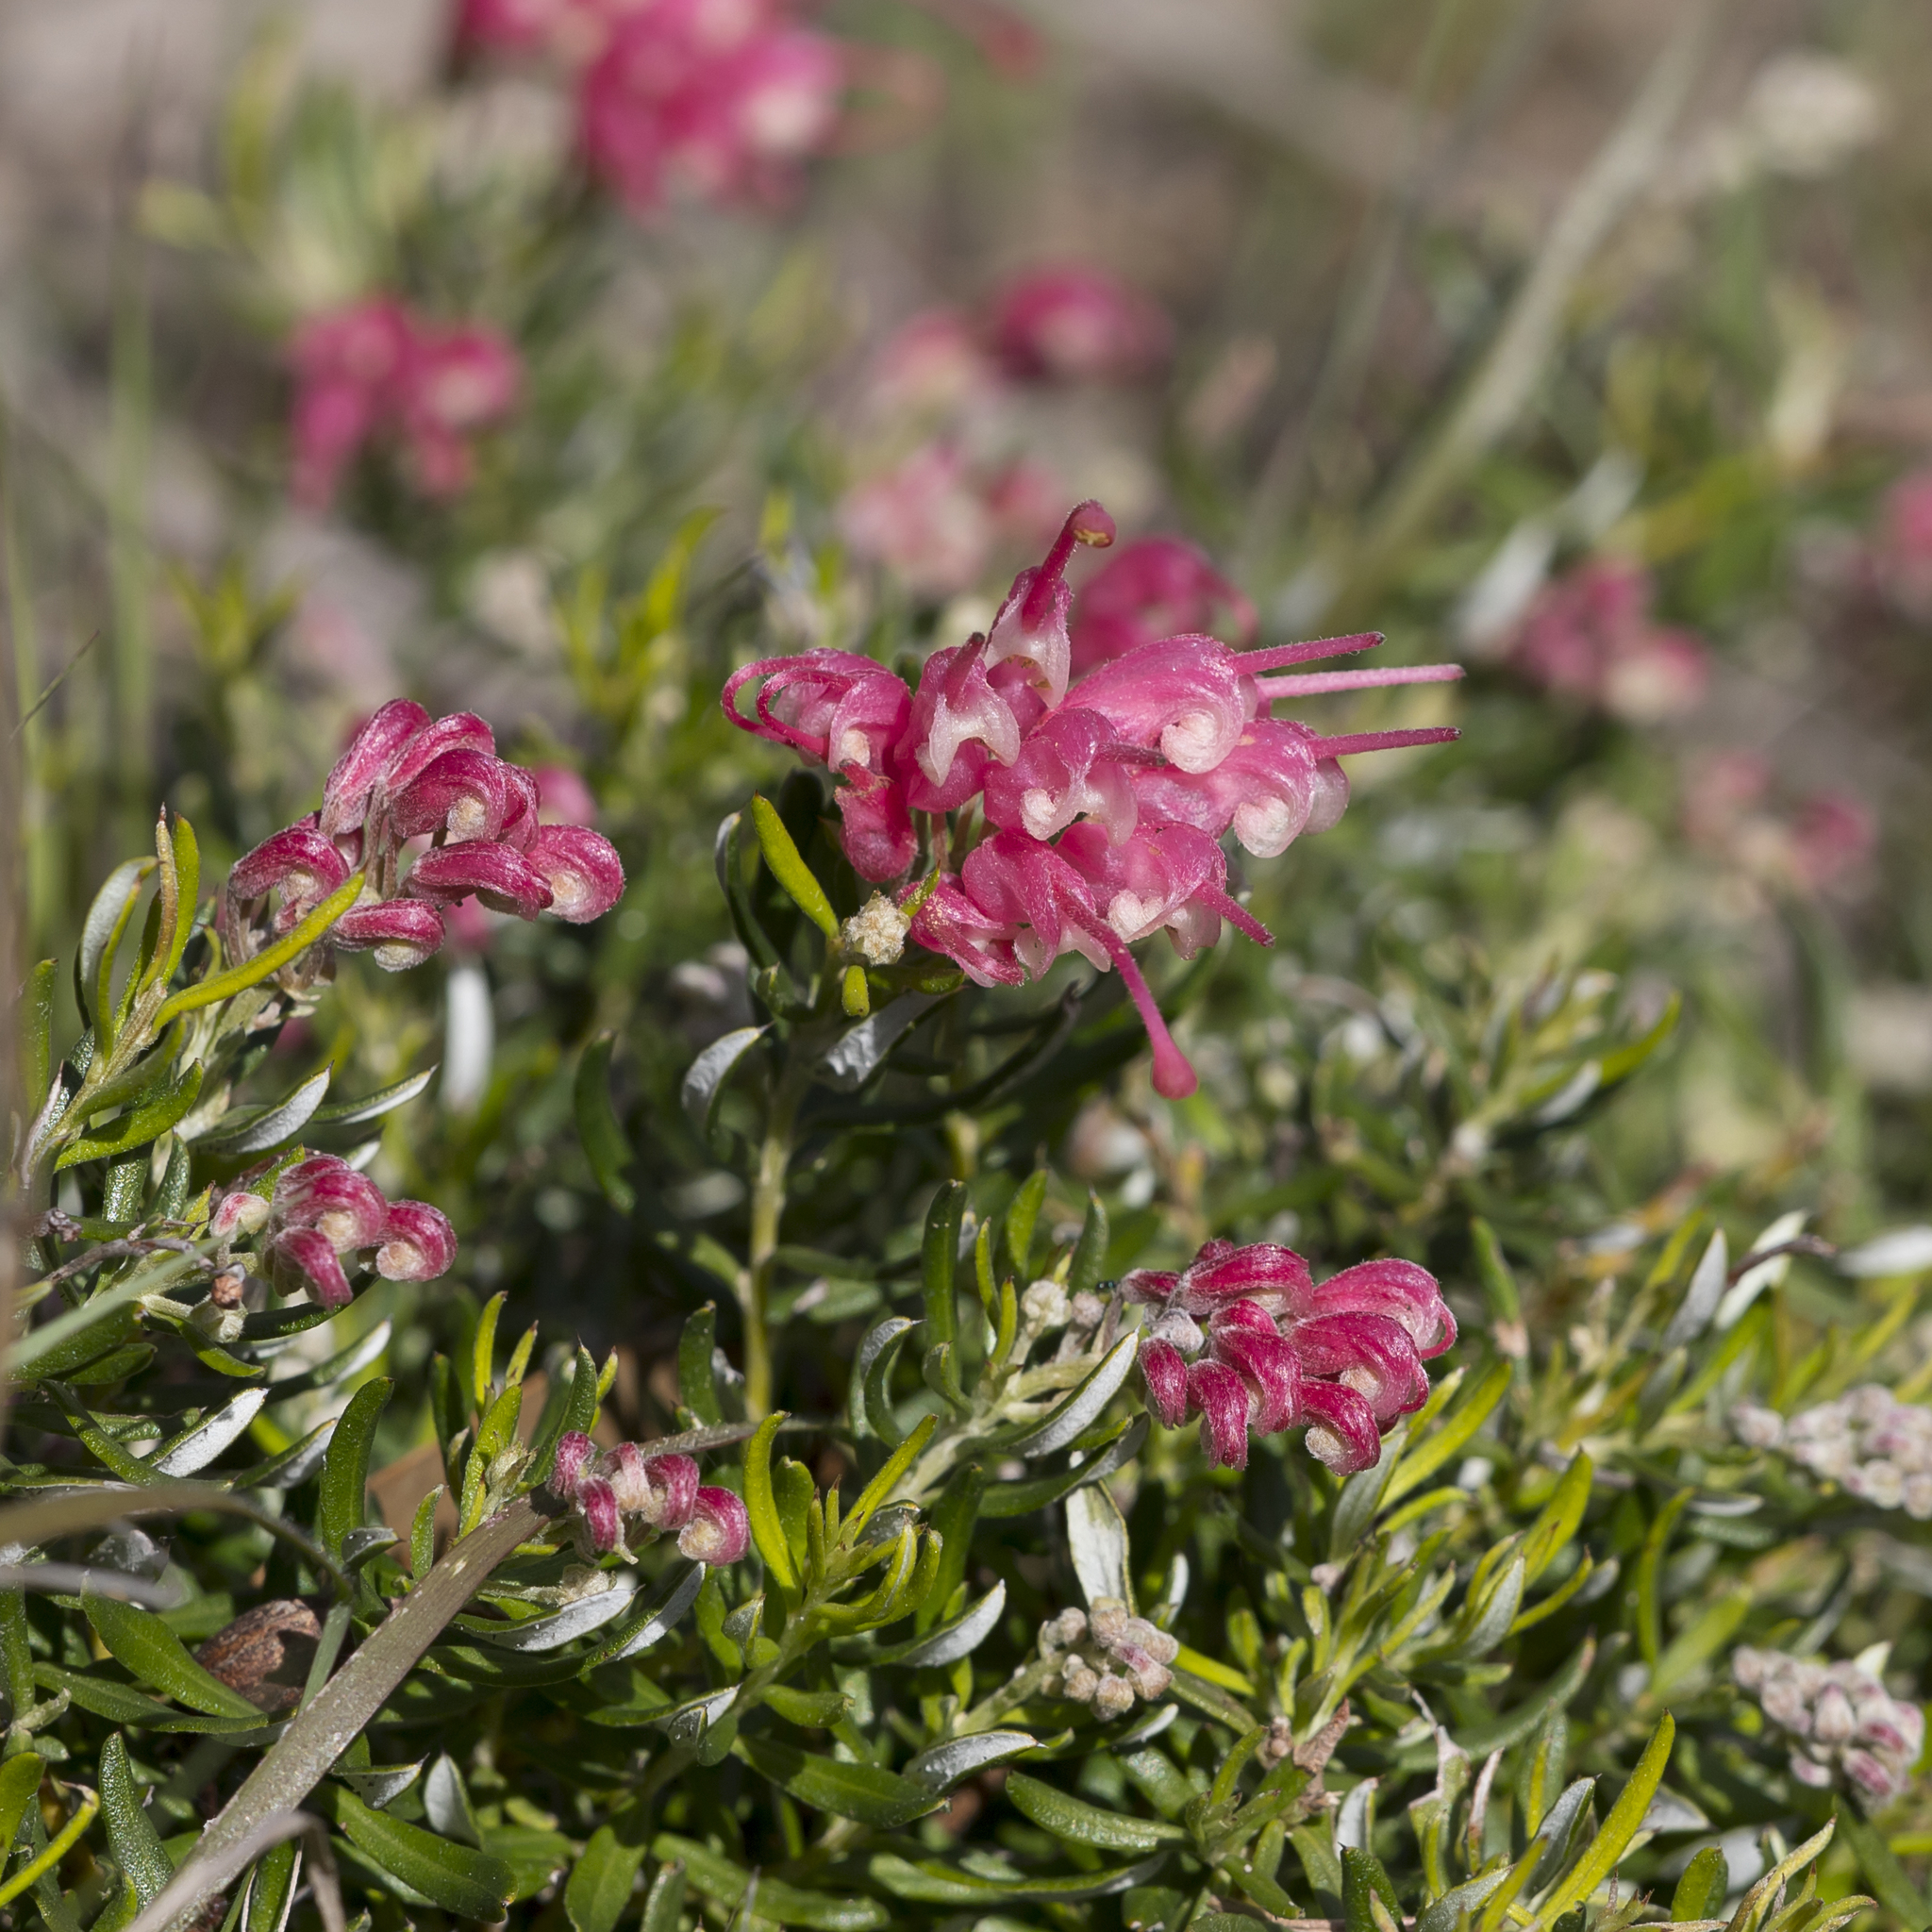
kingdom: Plantae
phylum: Tracheophyta
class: Magnoliopsida
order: Proteales
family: Proteaceae
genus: Grevillea
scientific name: Grevillea lavandulacea
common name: Lavender grevillea
